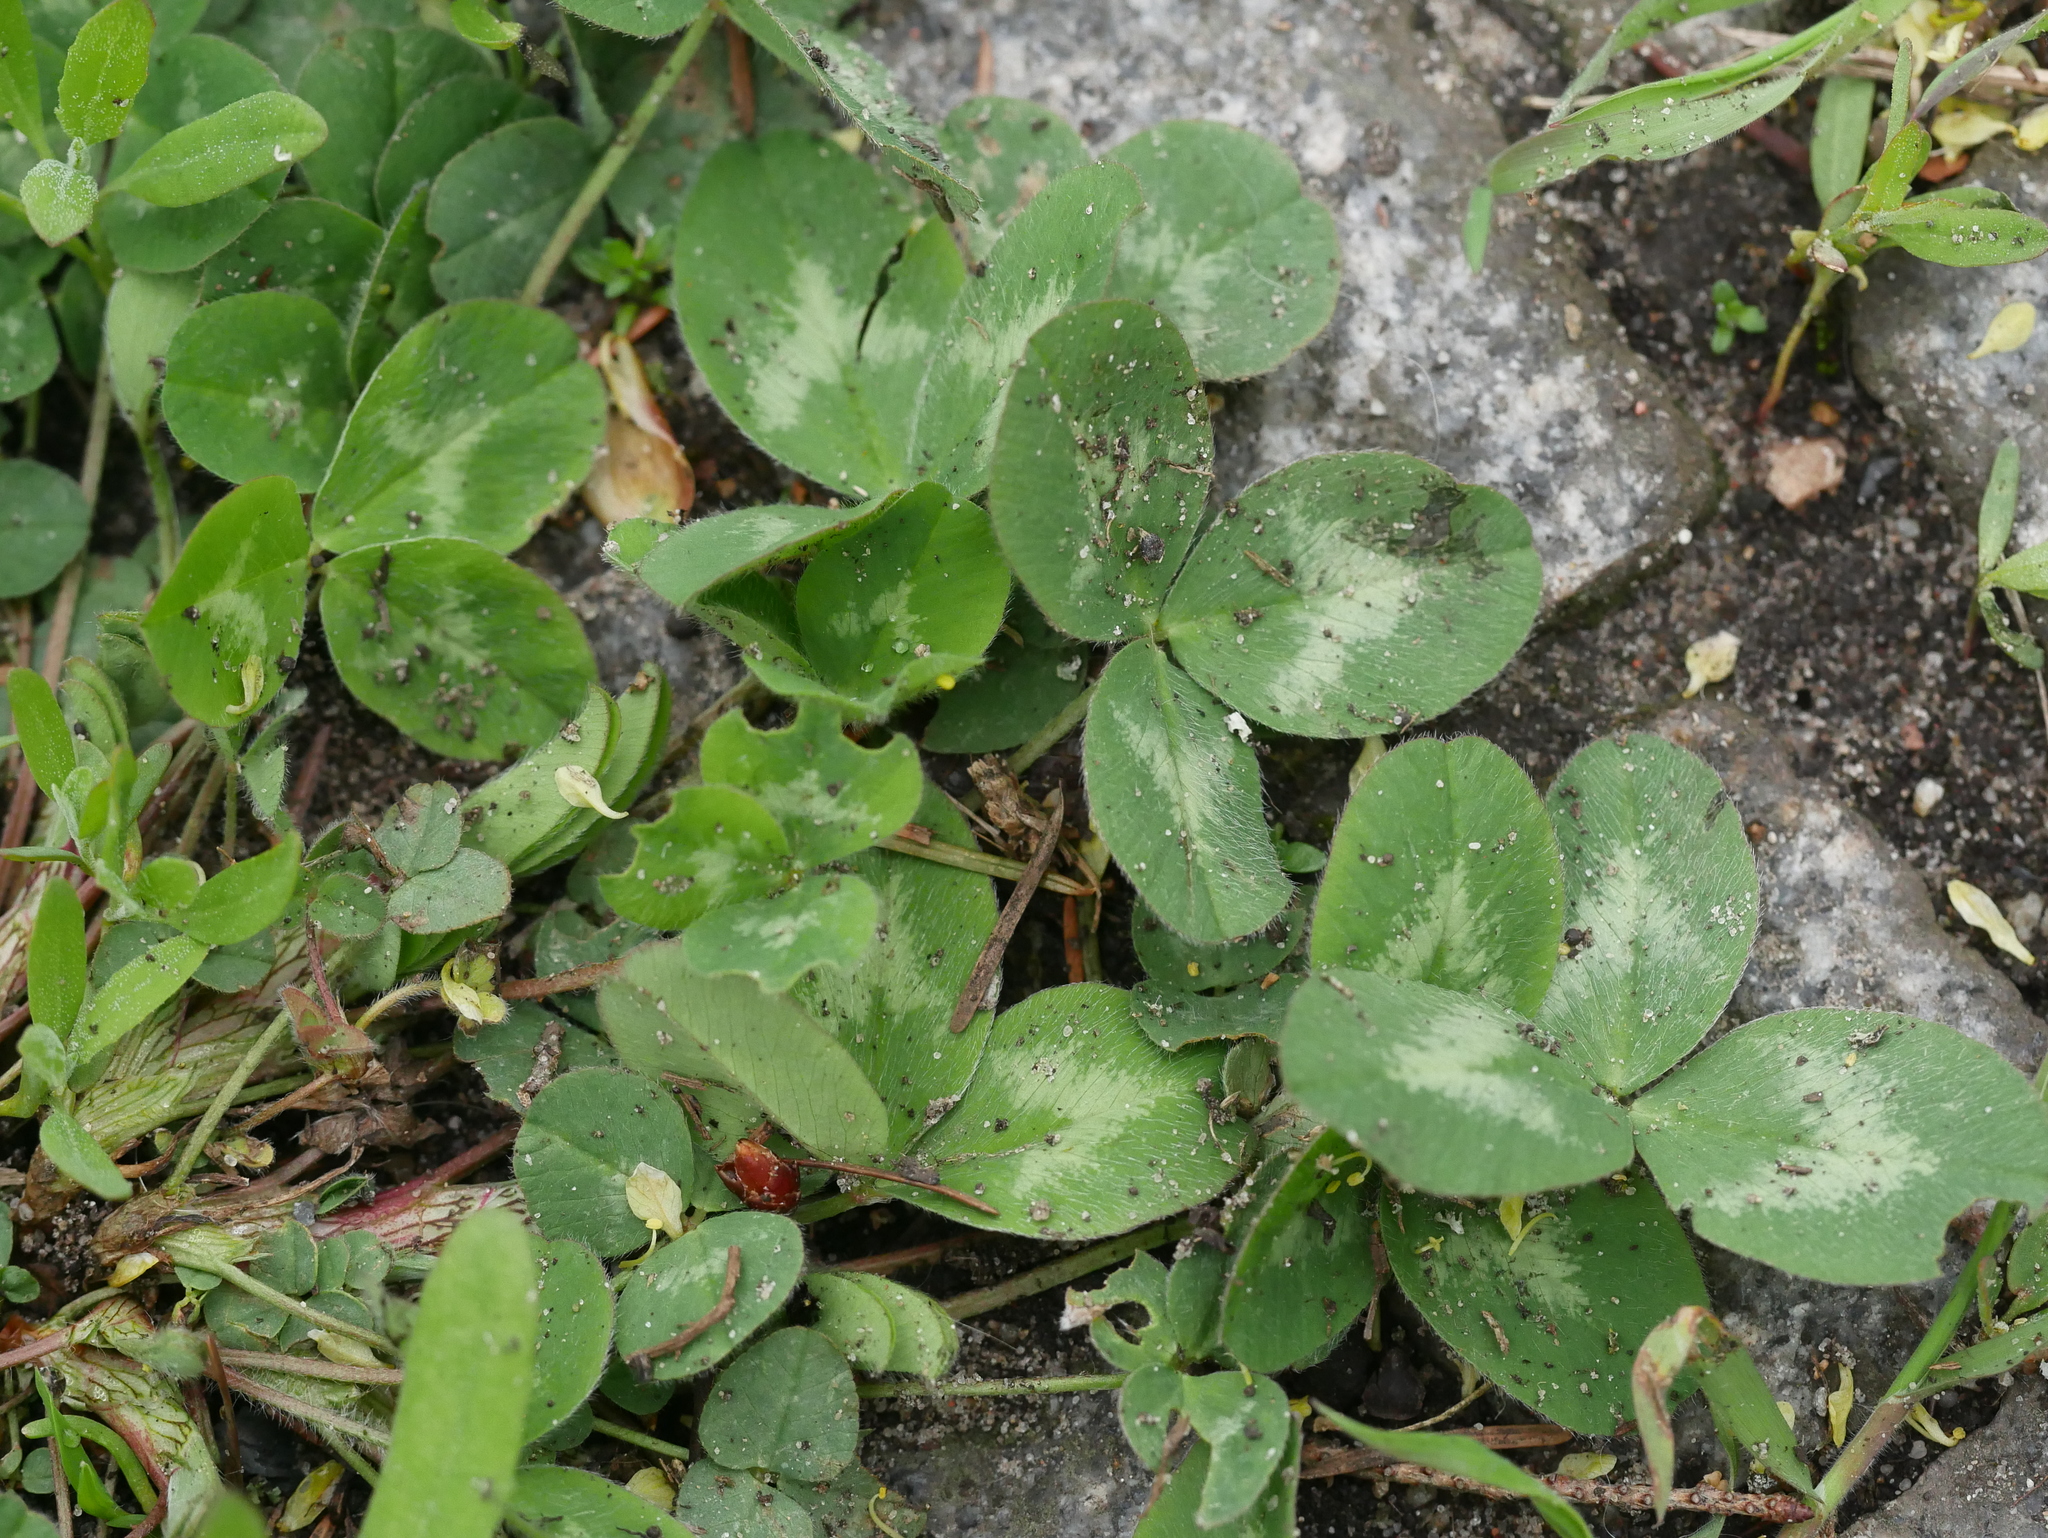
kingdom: Plantae
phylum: Tracheophyta
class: Magnoliopsida
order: Fabales
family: Fabaceae
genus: Trifolium
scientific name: Trifolium repens
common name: White clover
